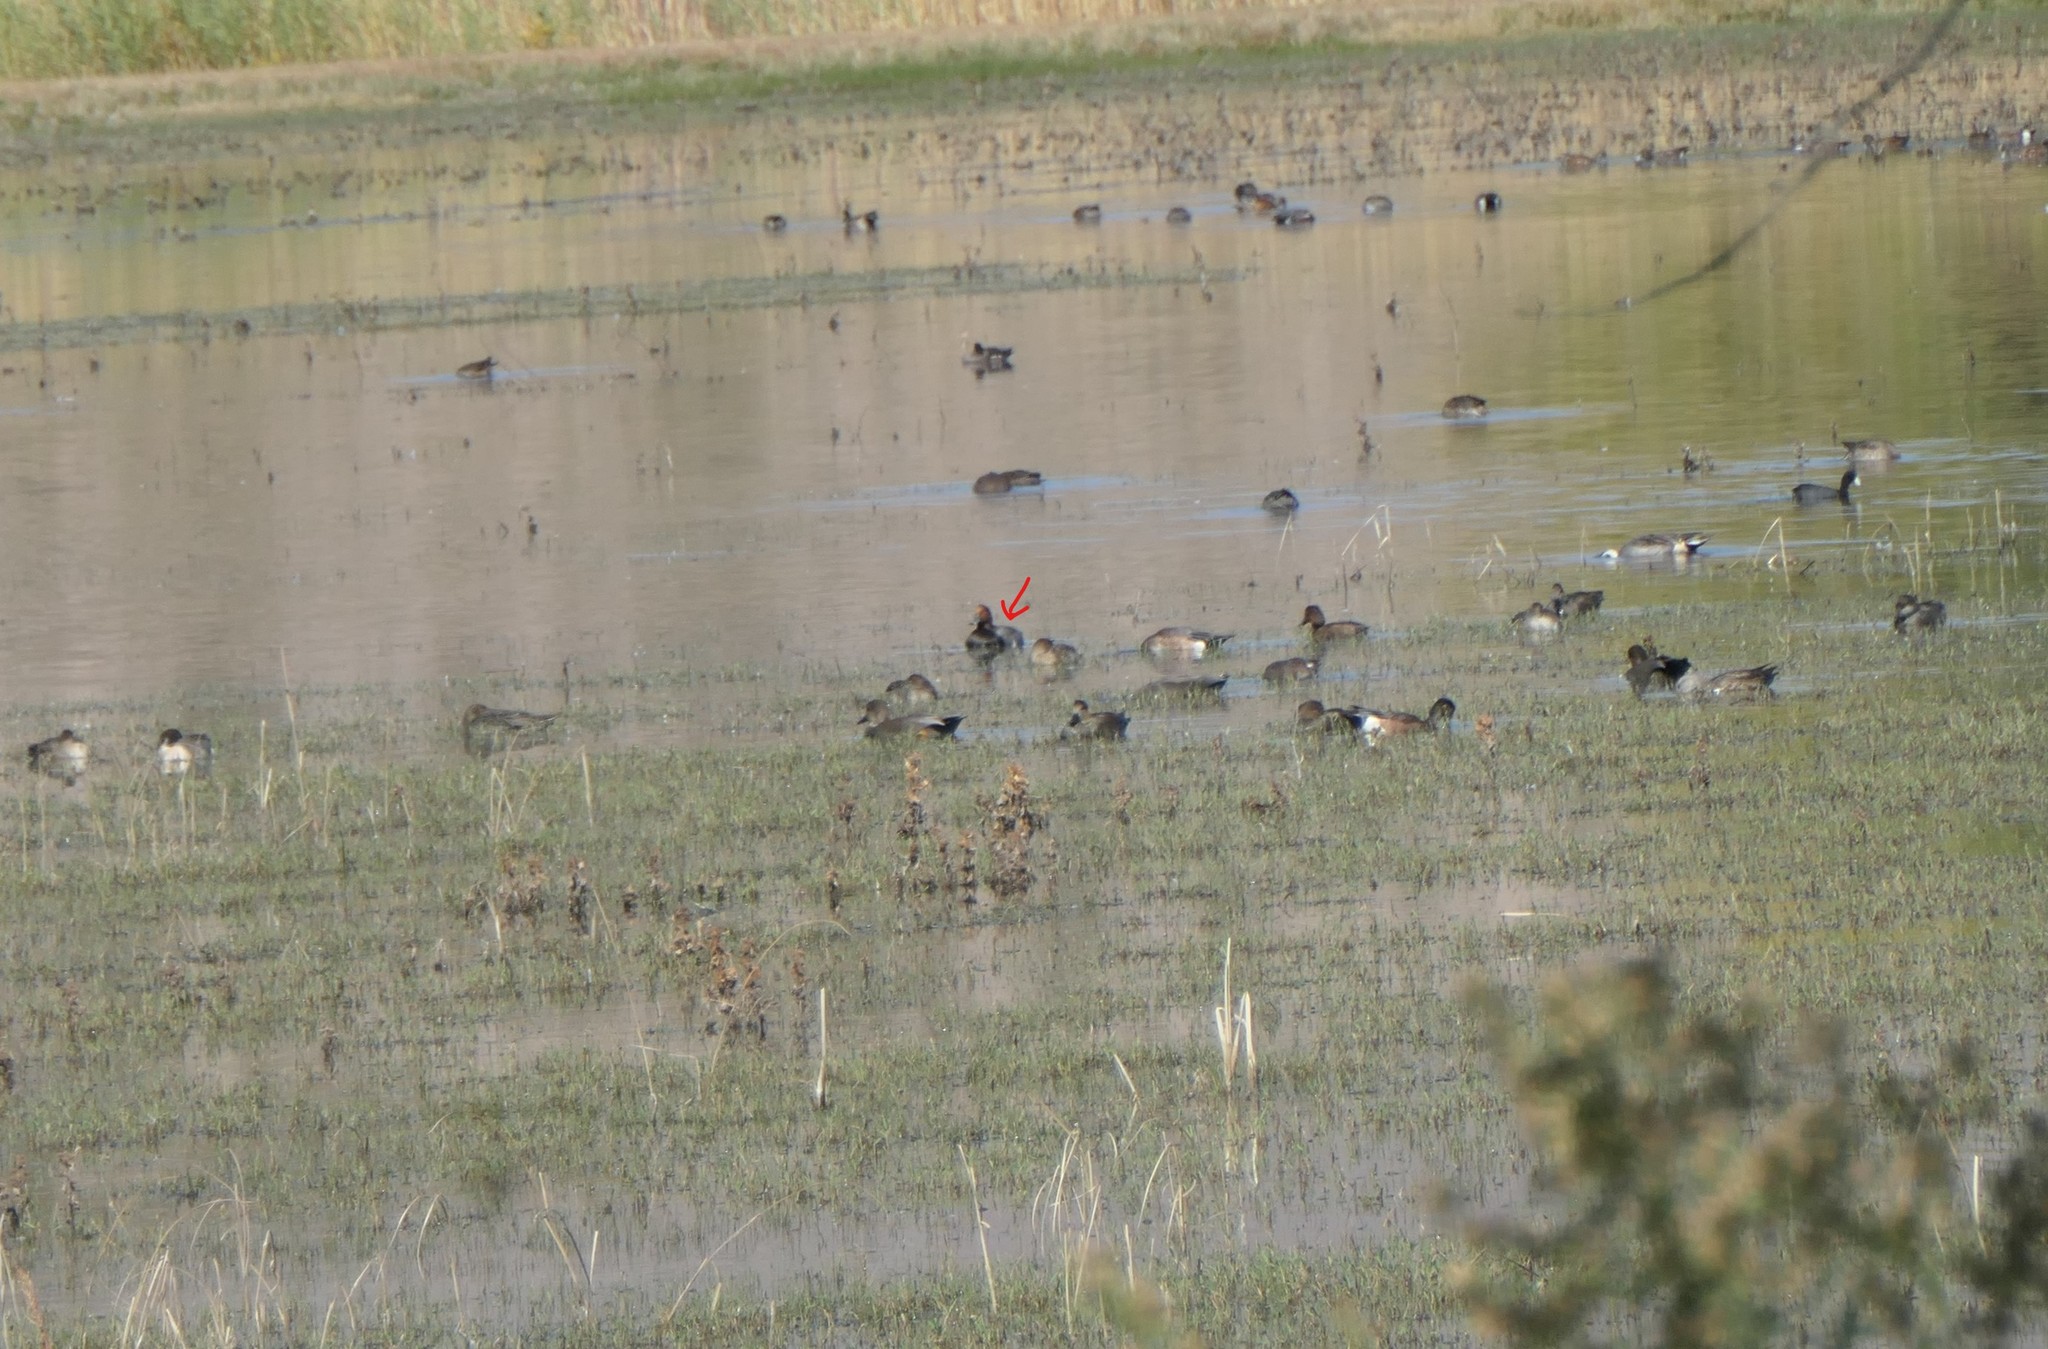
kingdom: Animalia
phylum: Chordata
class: Aves
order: Anseriformes
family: Anatidae
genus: Aythya
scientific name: Aythya americana
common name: Redhead
